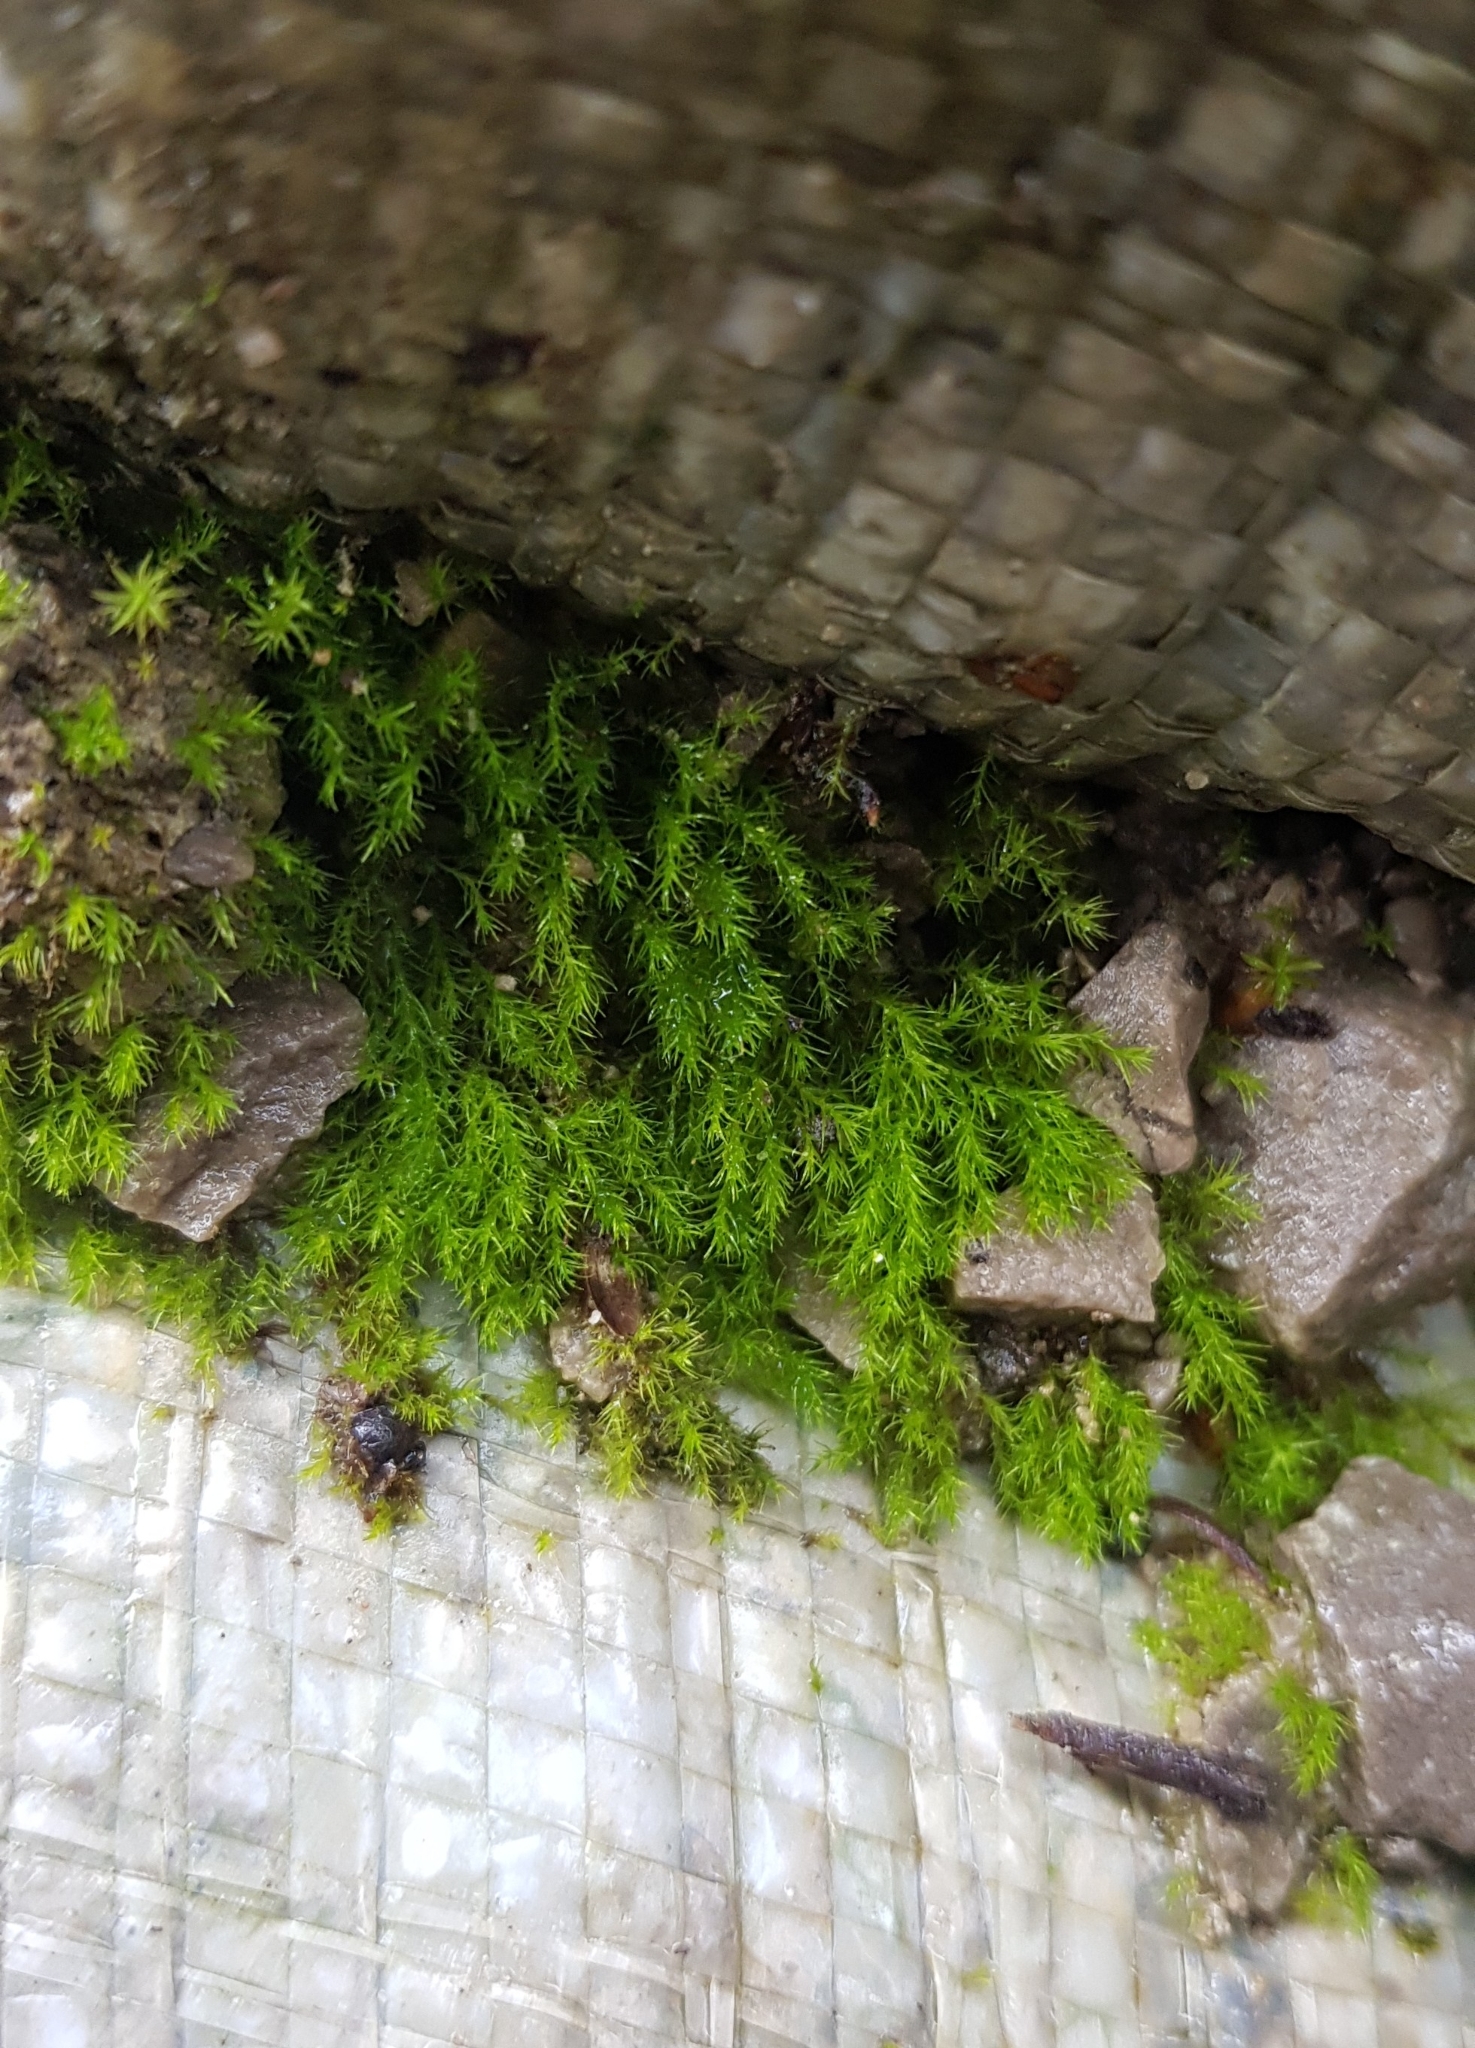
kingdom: Plantae
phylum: Bryophyta
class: Bryopsida
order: Dicranales
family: Dicranellaceae
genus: Dicranella
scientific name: Dicranella rufescens
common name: Red forklet moss
